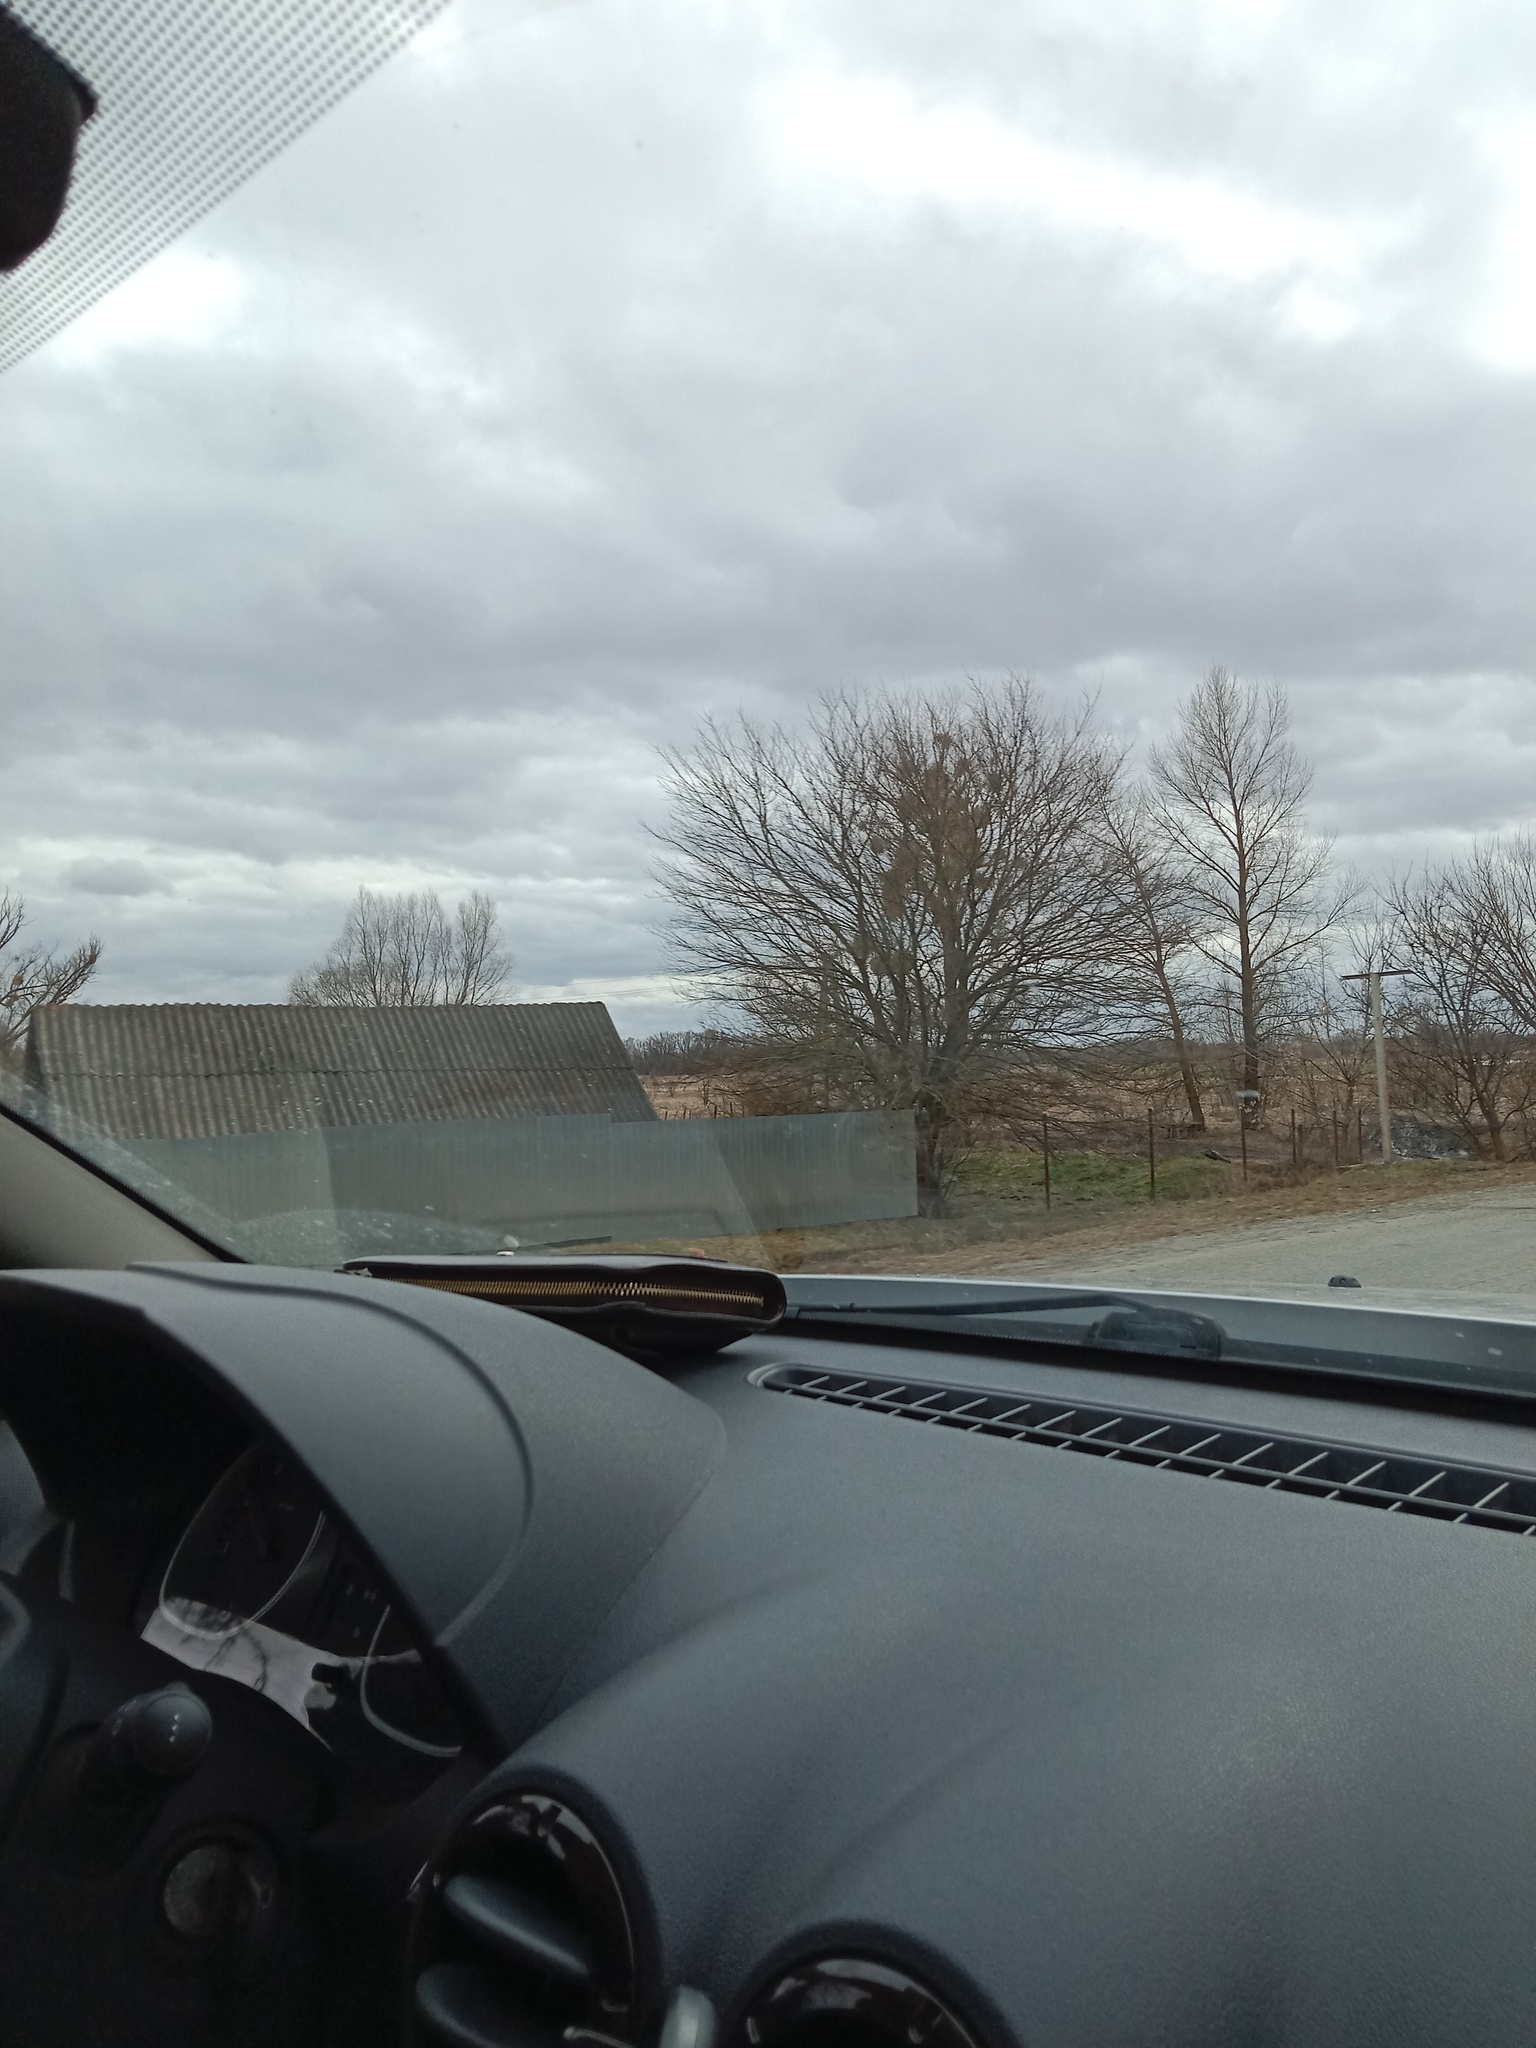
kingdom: Plantae
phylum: Tracheophyta
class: Magnoliopsida
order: Santalales
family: Viscaceae
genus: Viscum
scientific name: Viscum album
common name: Mistletoe
